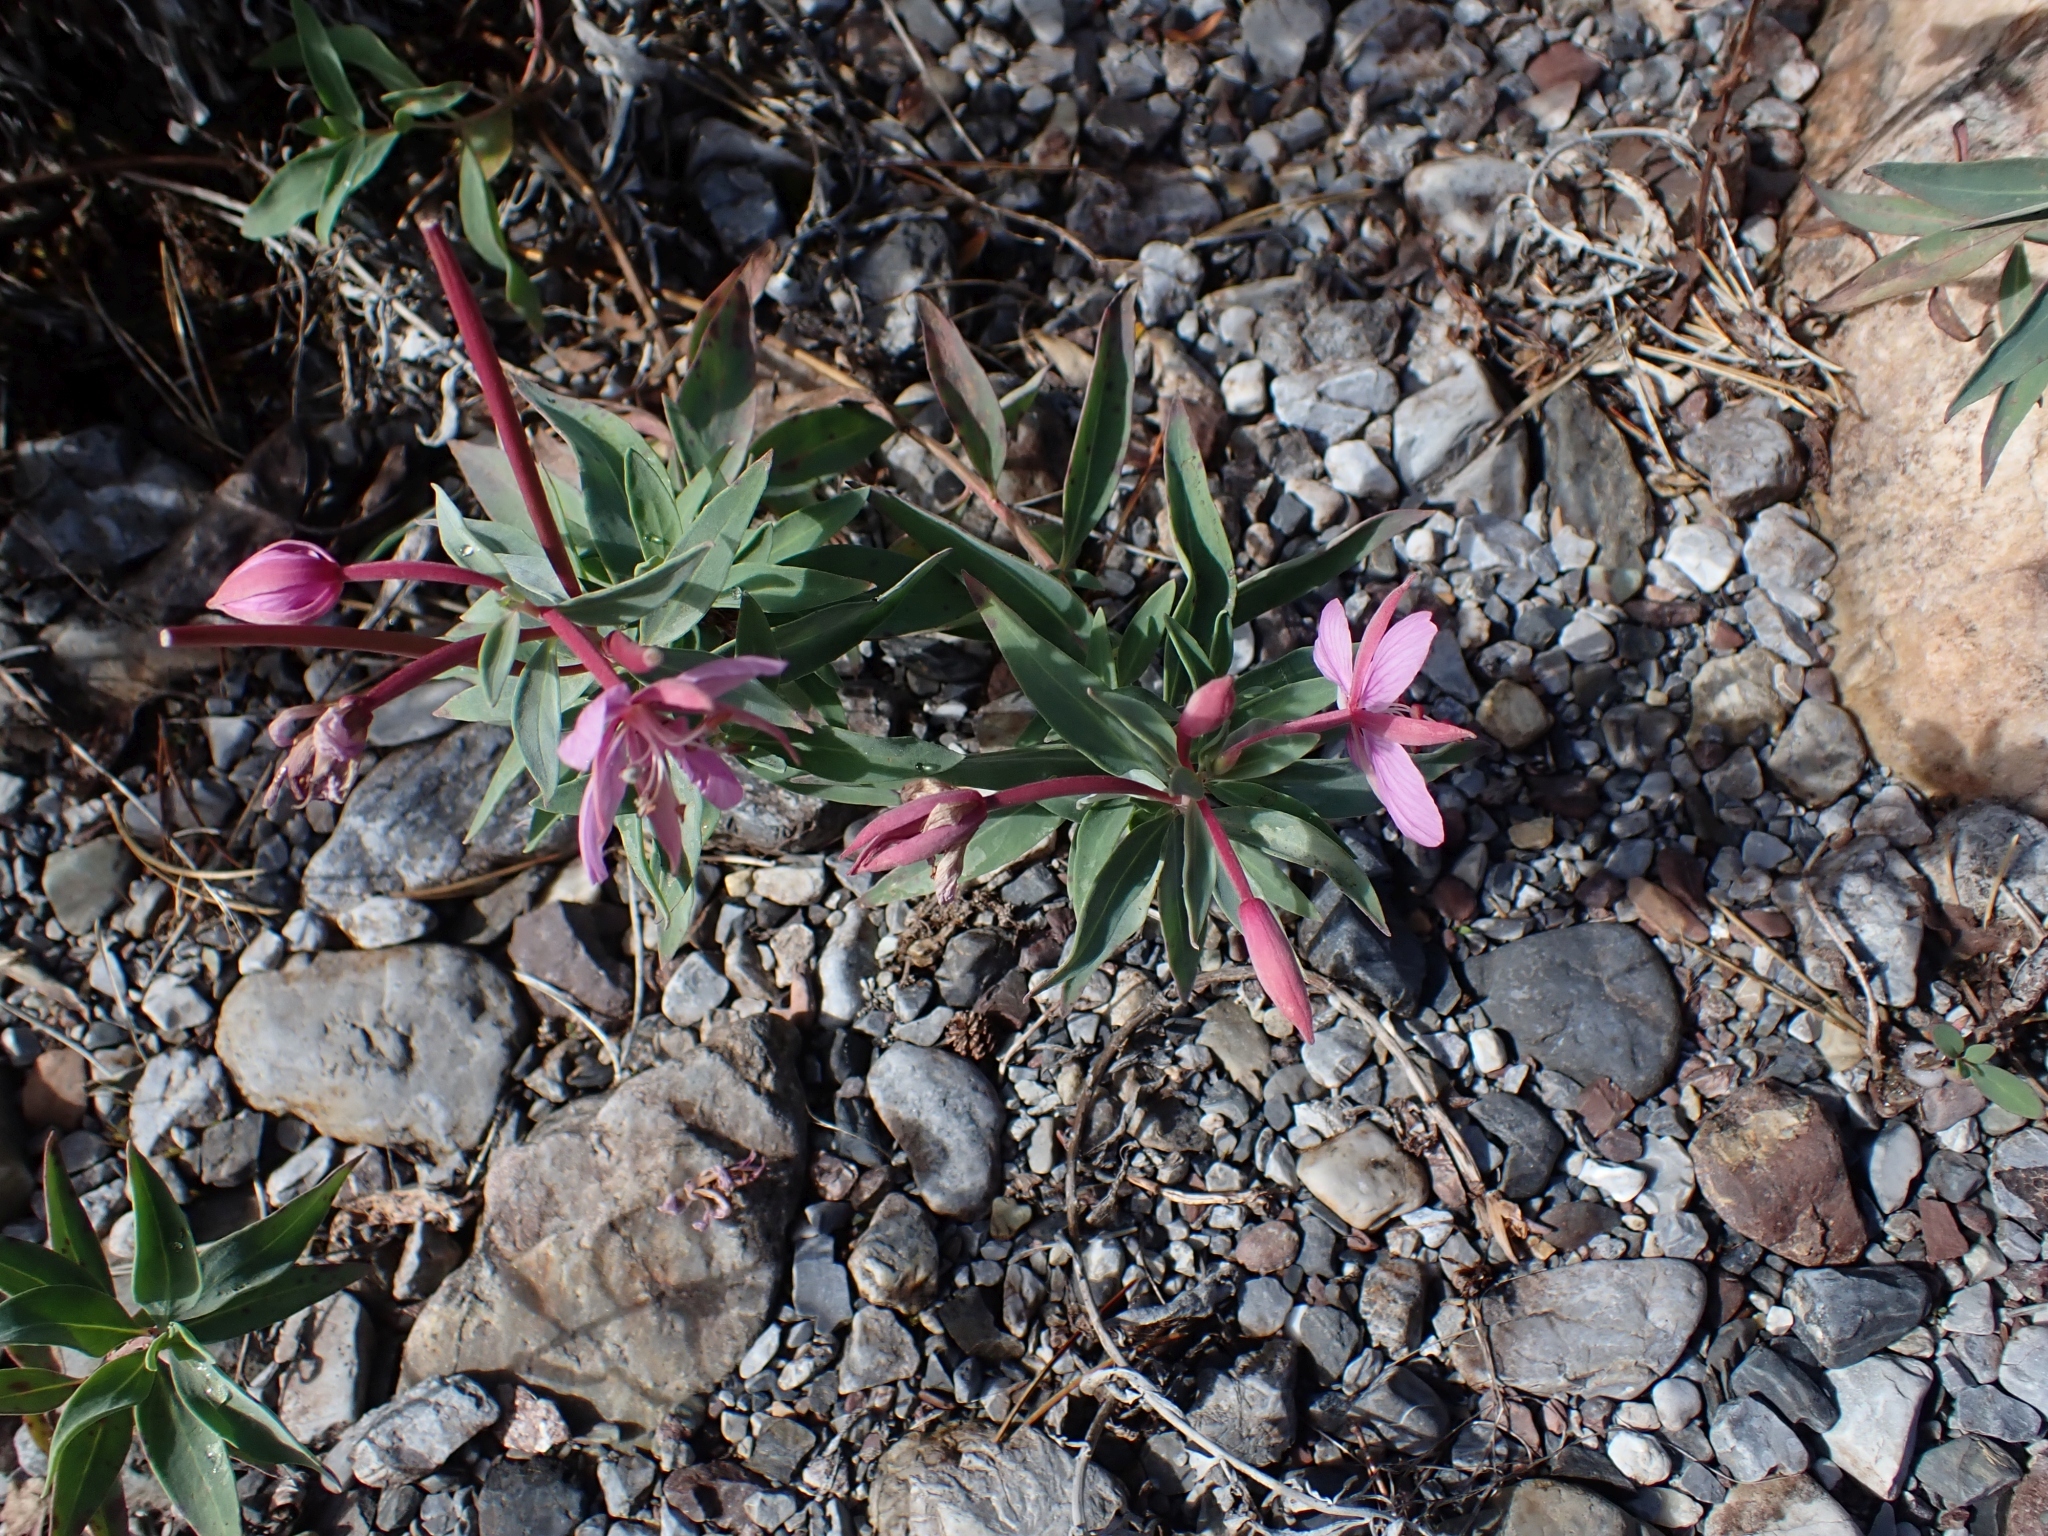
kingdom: Plantae
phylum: Tracheophyta
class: Magnoliopsida
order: Myrtales
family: Onagraceae
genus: Chamaenerion
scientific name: Chamaenerion latifolium
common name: Dwarf fireweed
